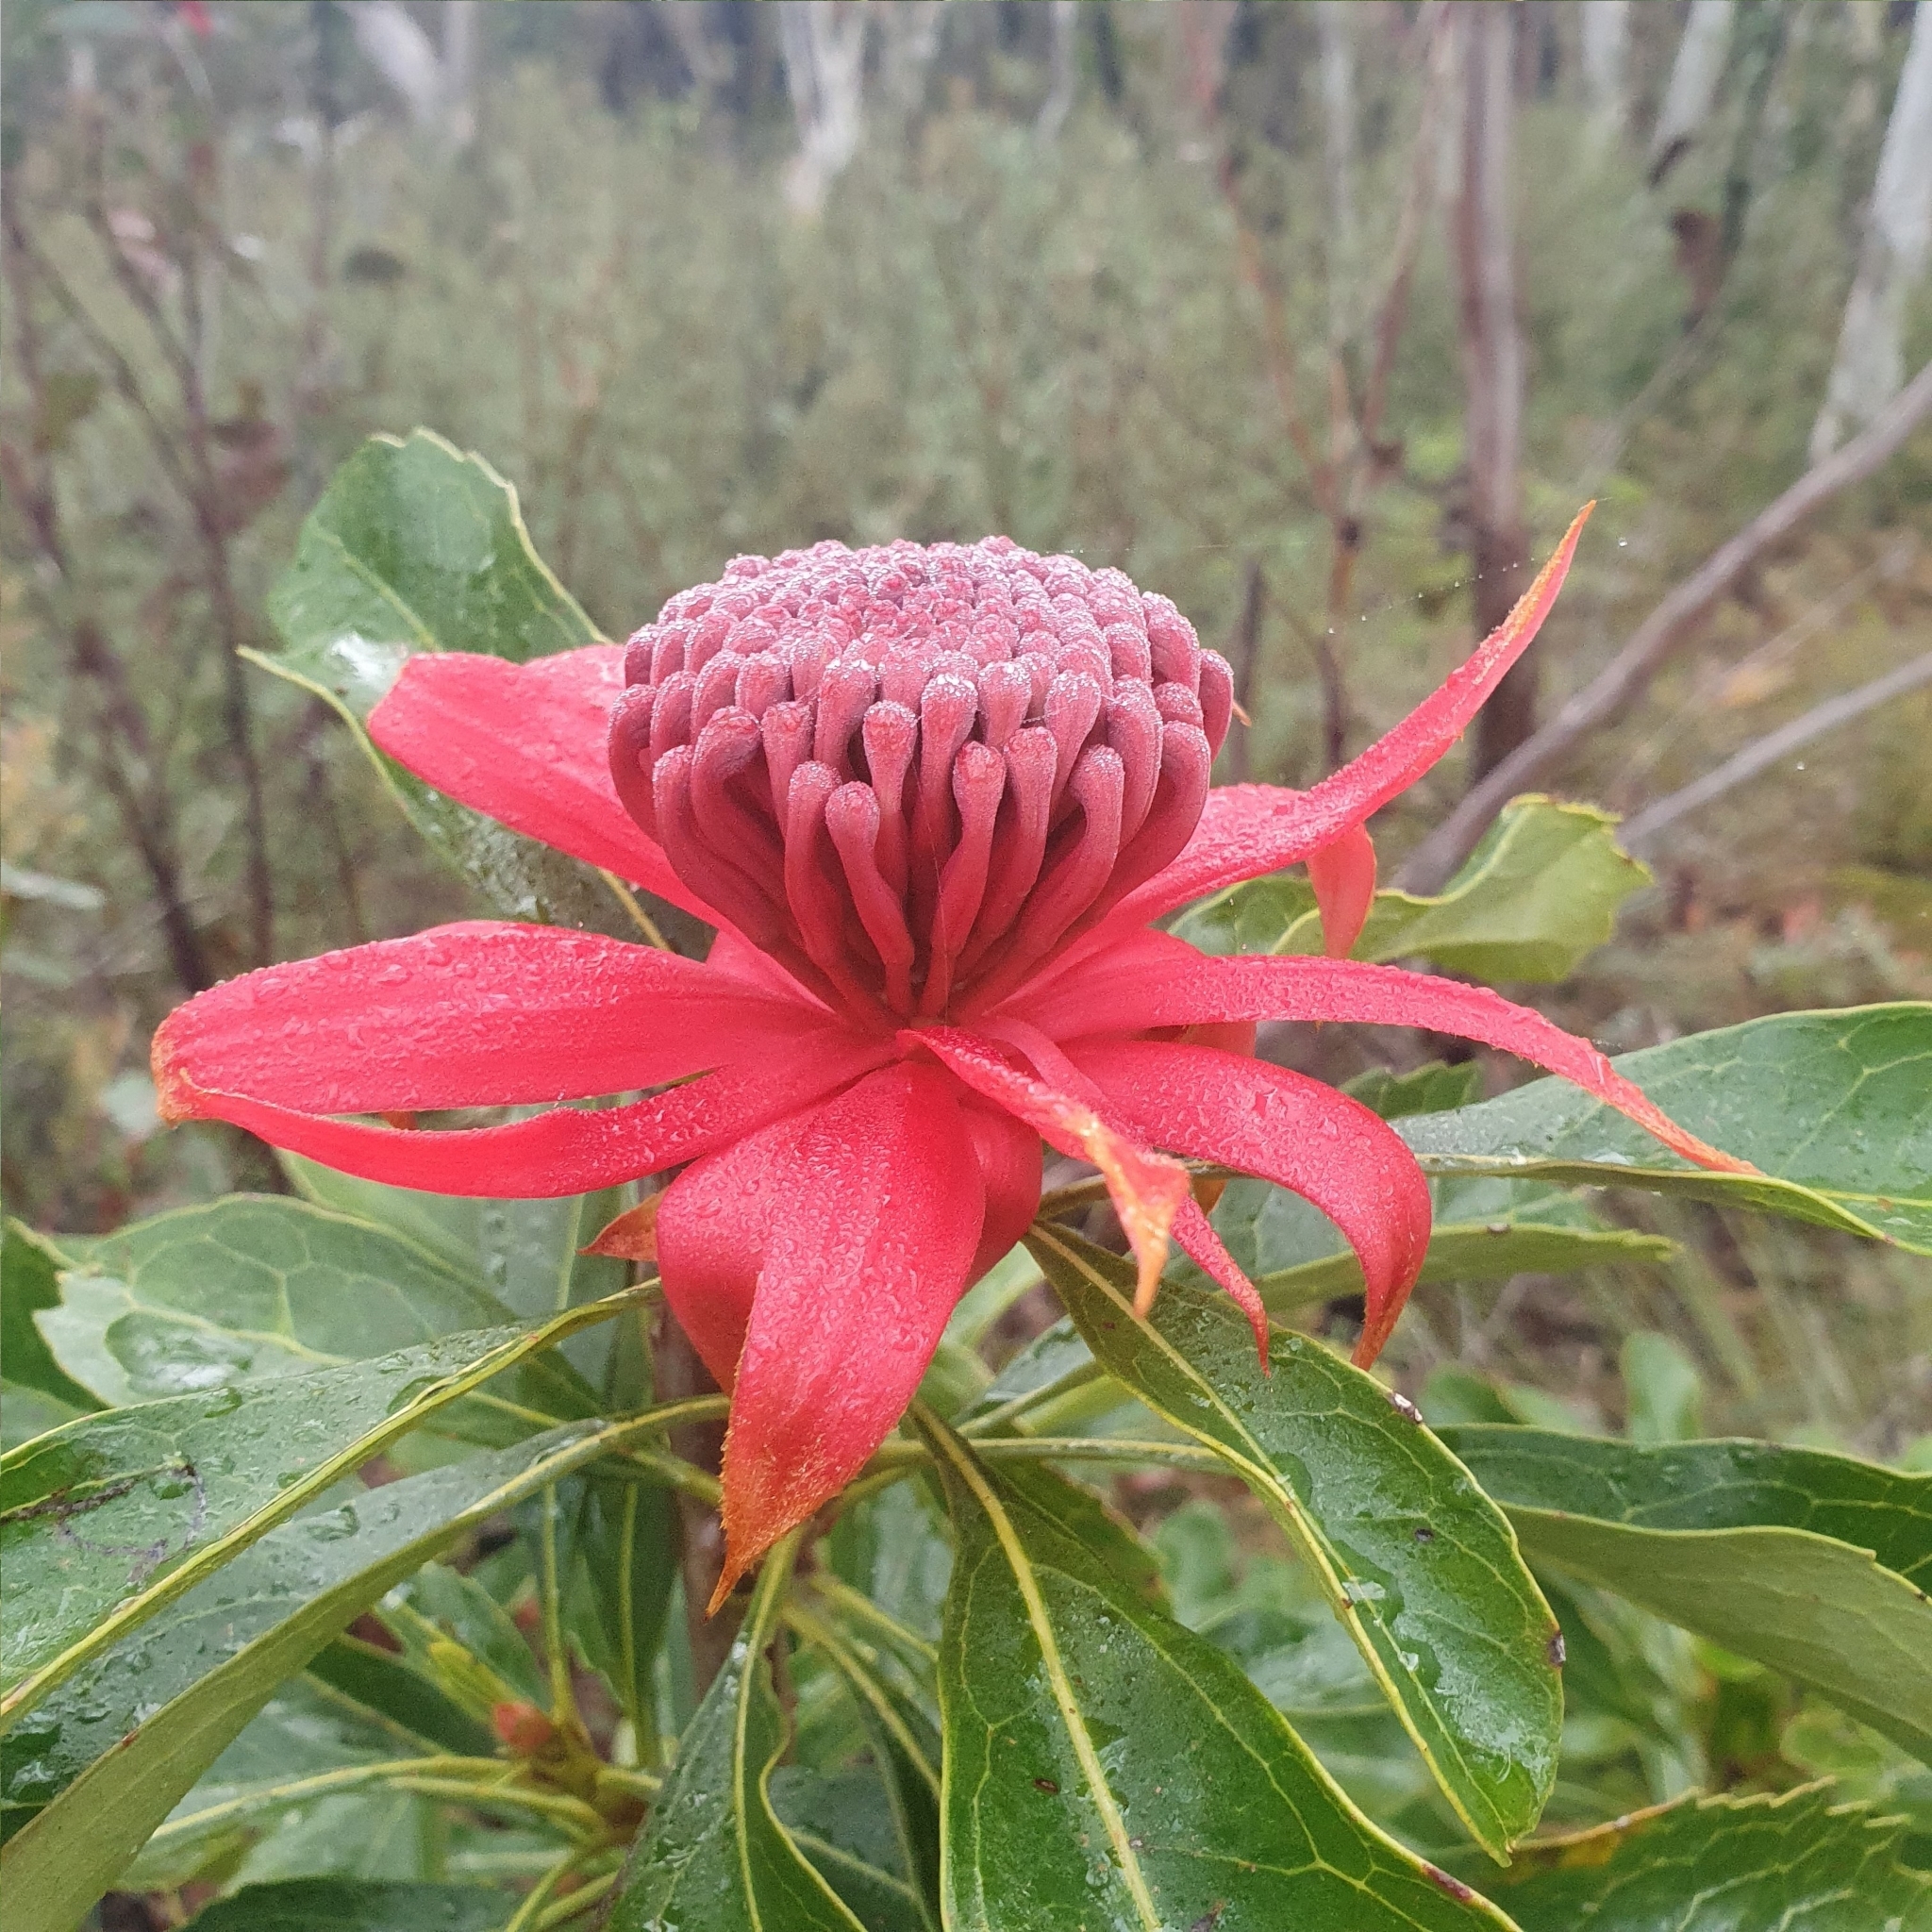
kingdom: Plantae
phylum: Tracheophyta
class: Magnoliopsida
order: Proteales
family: Proteaceae
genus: Telopea
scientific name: Telopea speciosissima
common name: New south wales waratah
